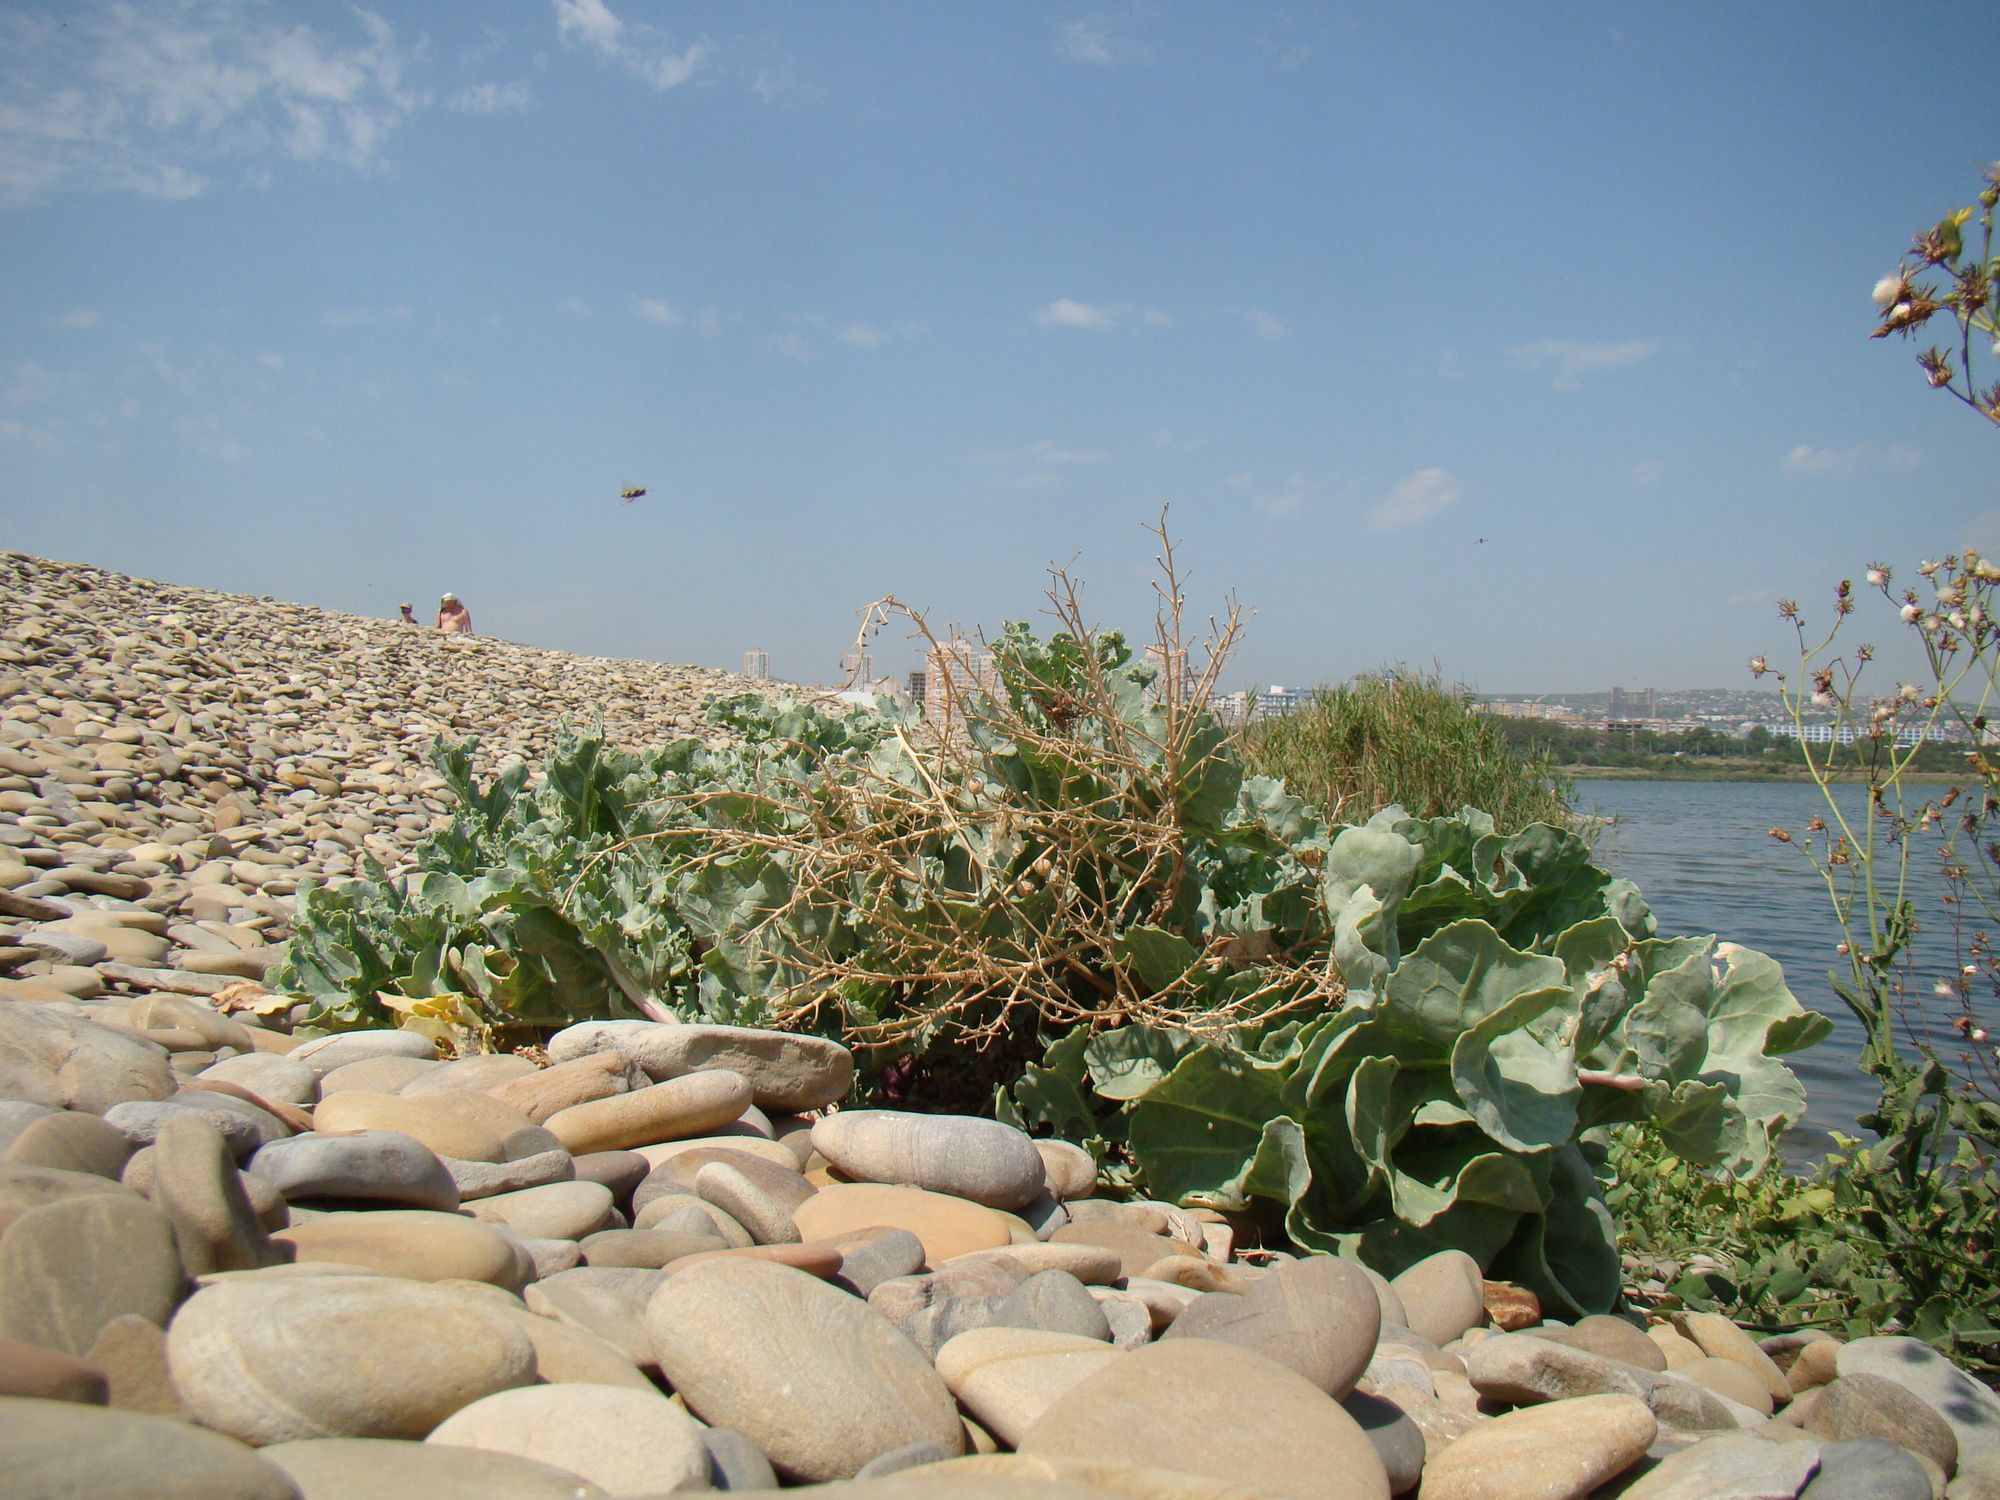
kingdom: Plantae
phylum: Tracheophyta
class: Magnoliopsida
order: Brassicales
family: Brassicaceae
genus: Crambe
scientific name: Crambe maritima
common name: Sea-kale
